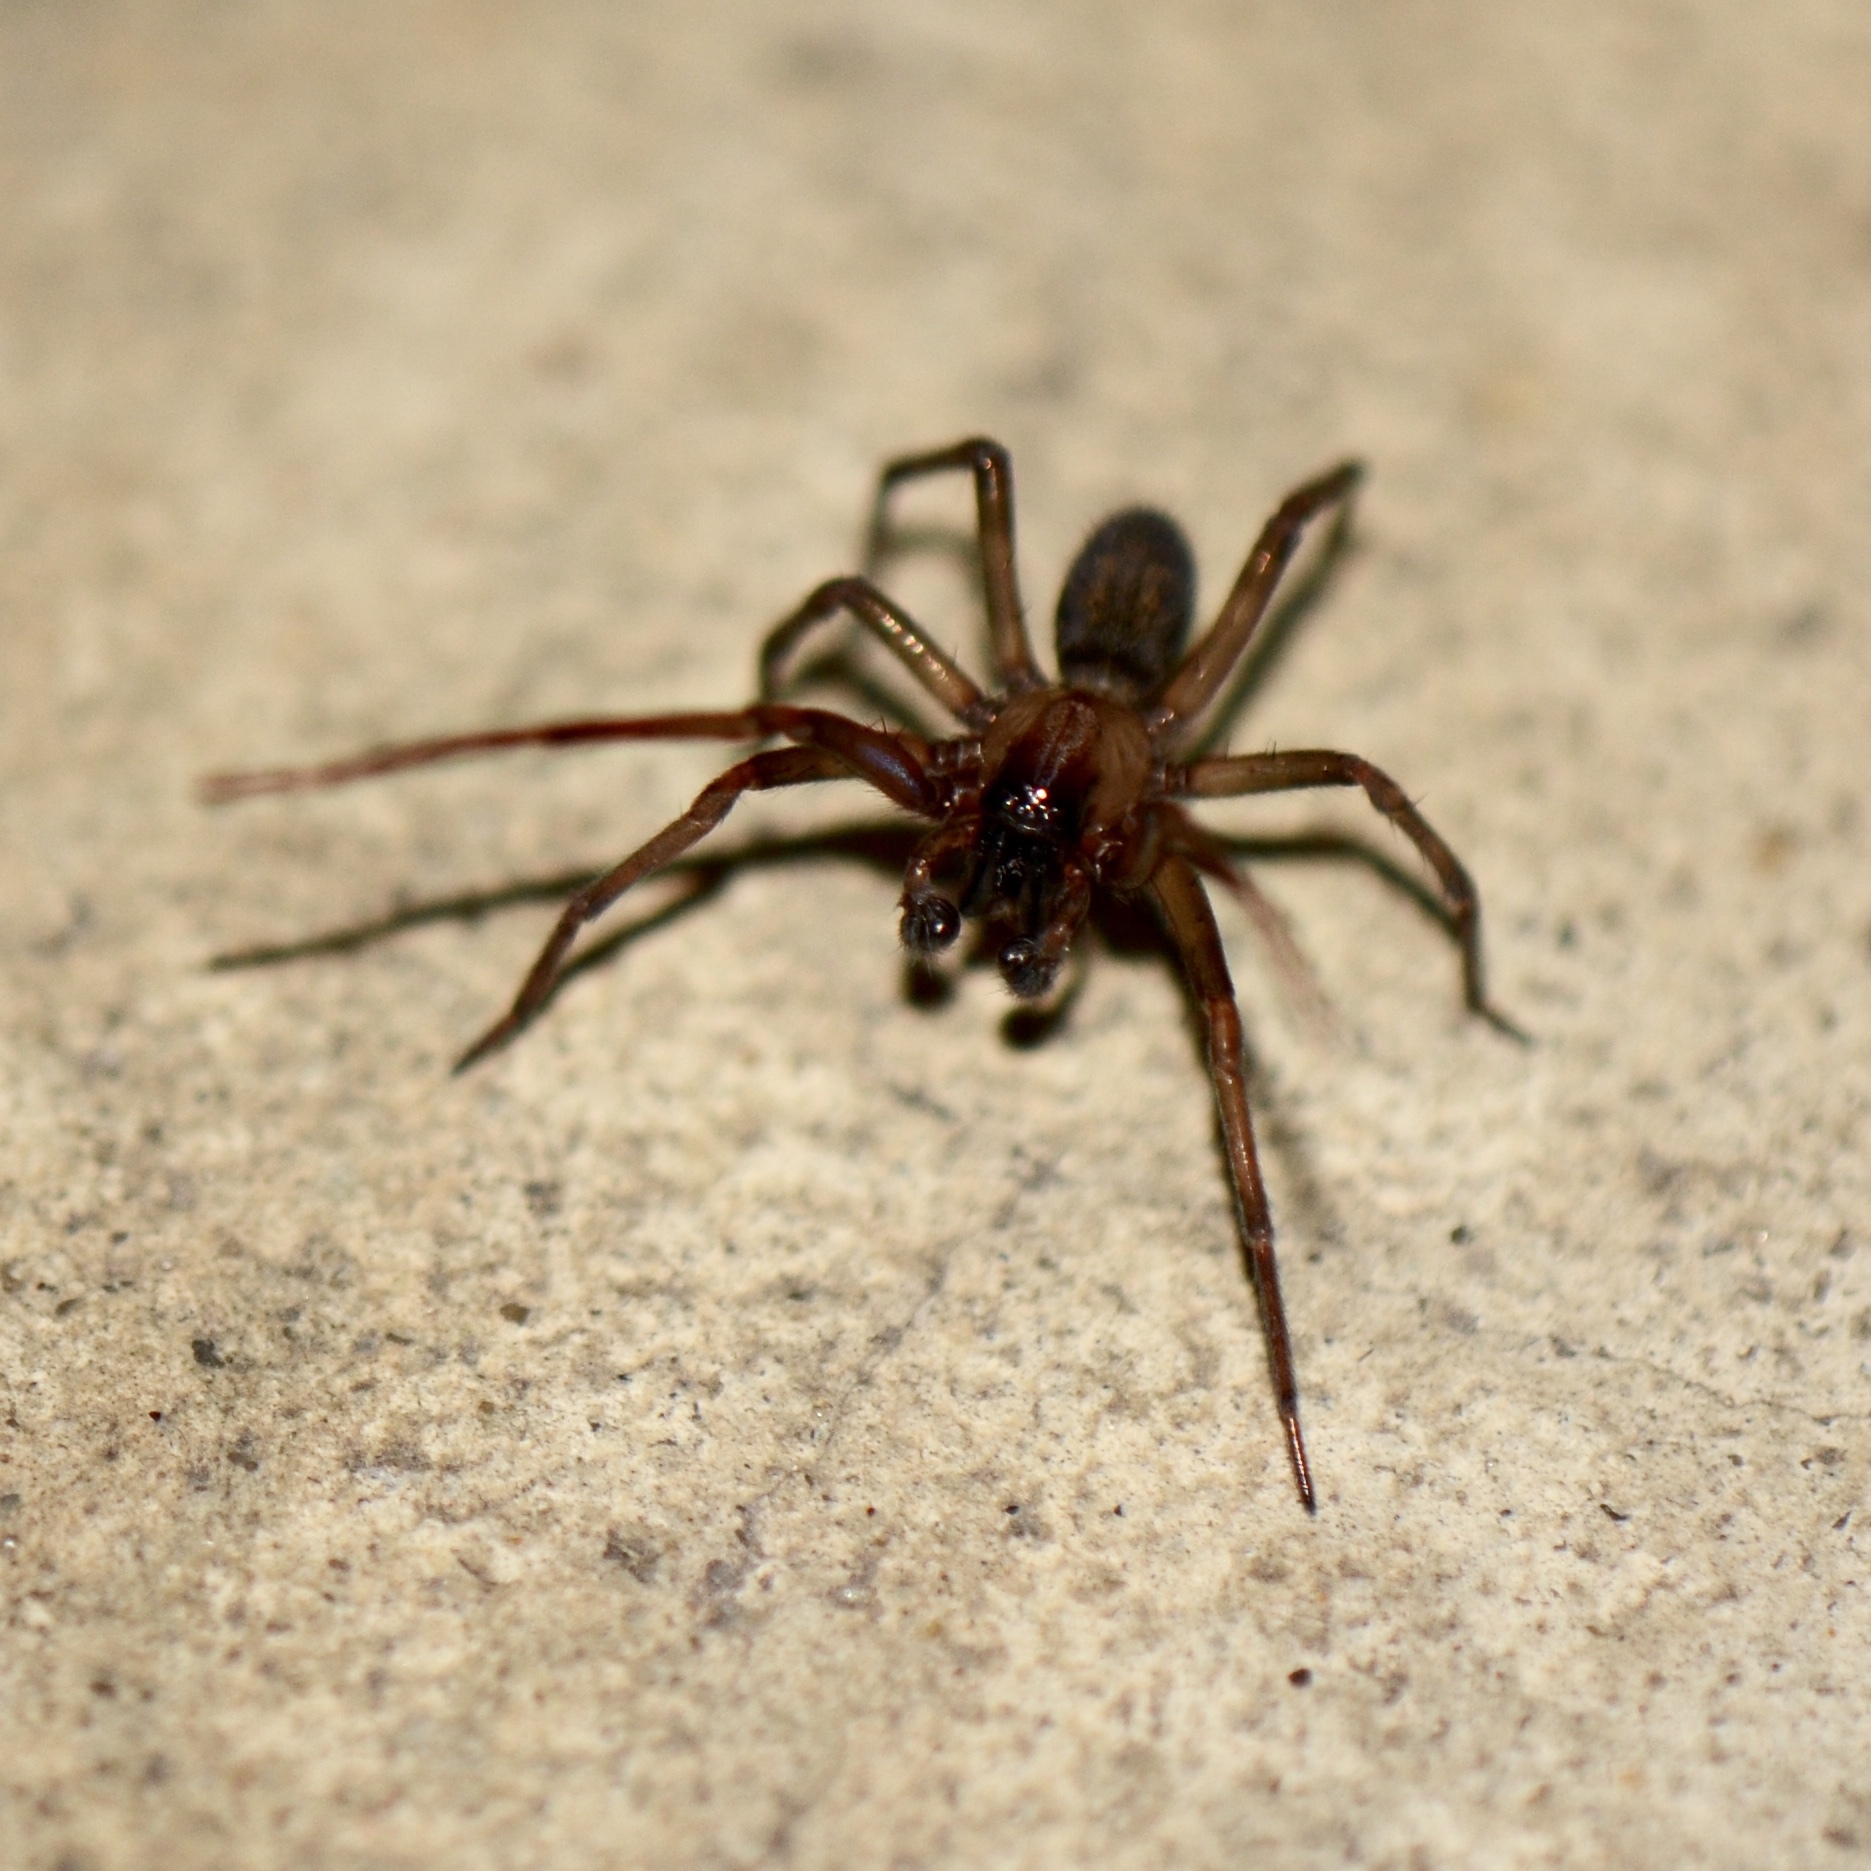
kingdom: Animalia
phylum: Arthropoda
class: Arachnida
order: Araneae
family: Desidae
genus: Metaltella
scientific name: Metaltella simoni
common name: Cribellate spider
